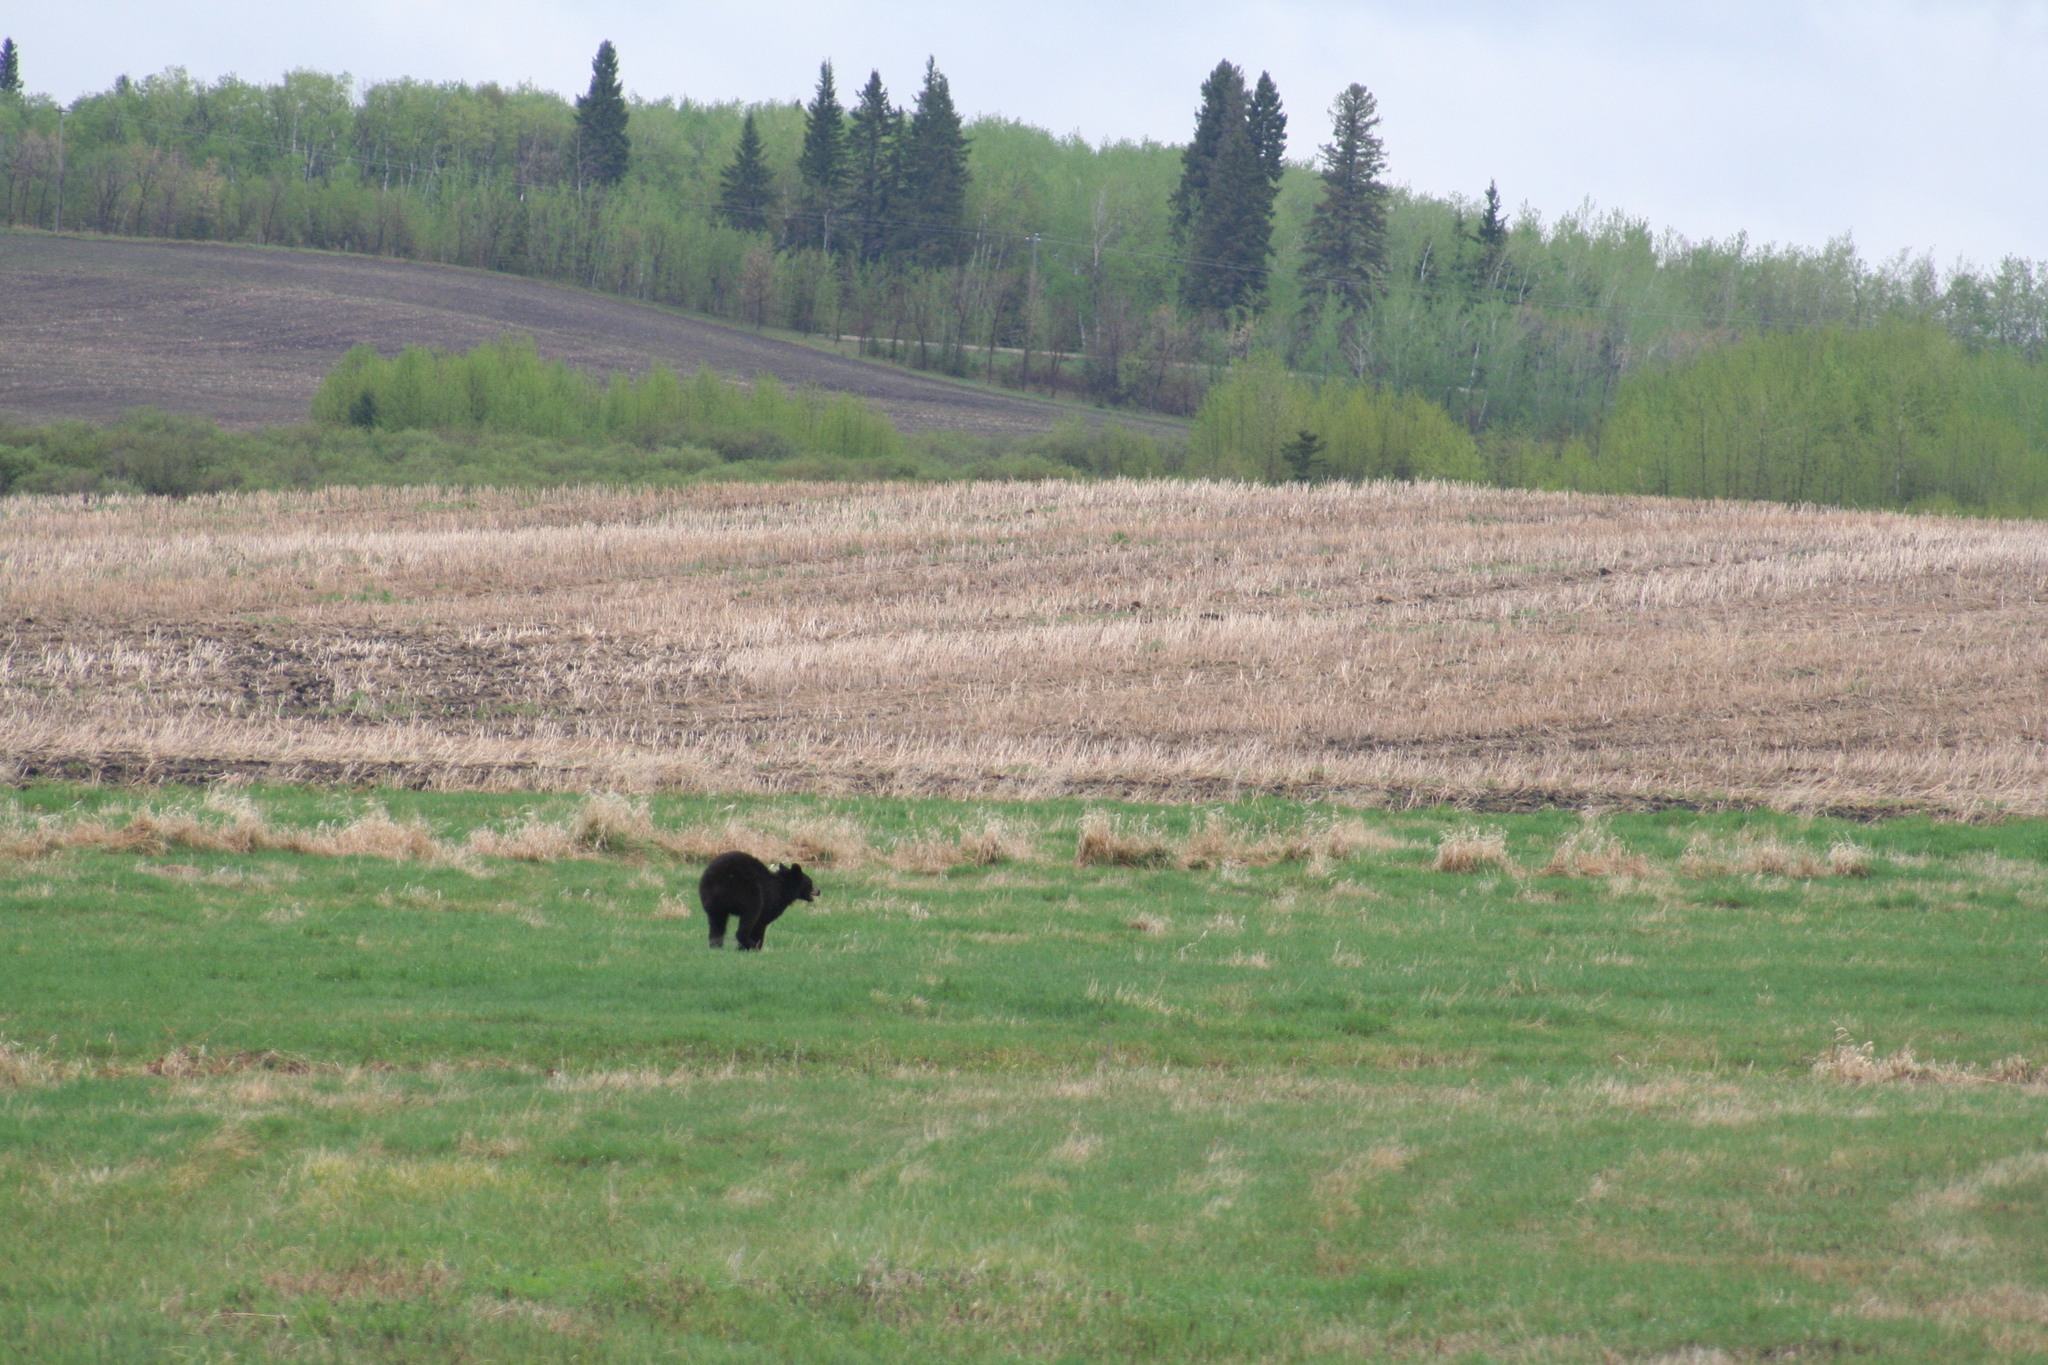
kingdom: Animalia
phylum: Chordata
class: Mammalia
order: Carnivora
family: Ursidae
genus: Ursus
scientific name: Ursus americanus
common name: American black bear
